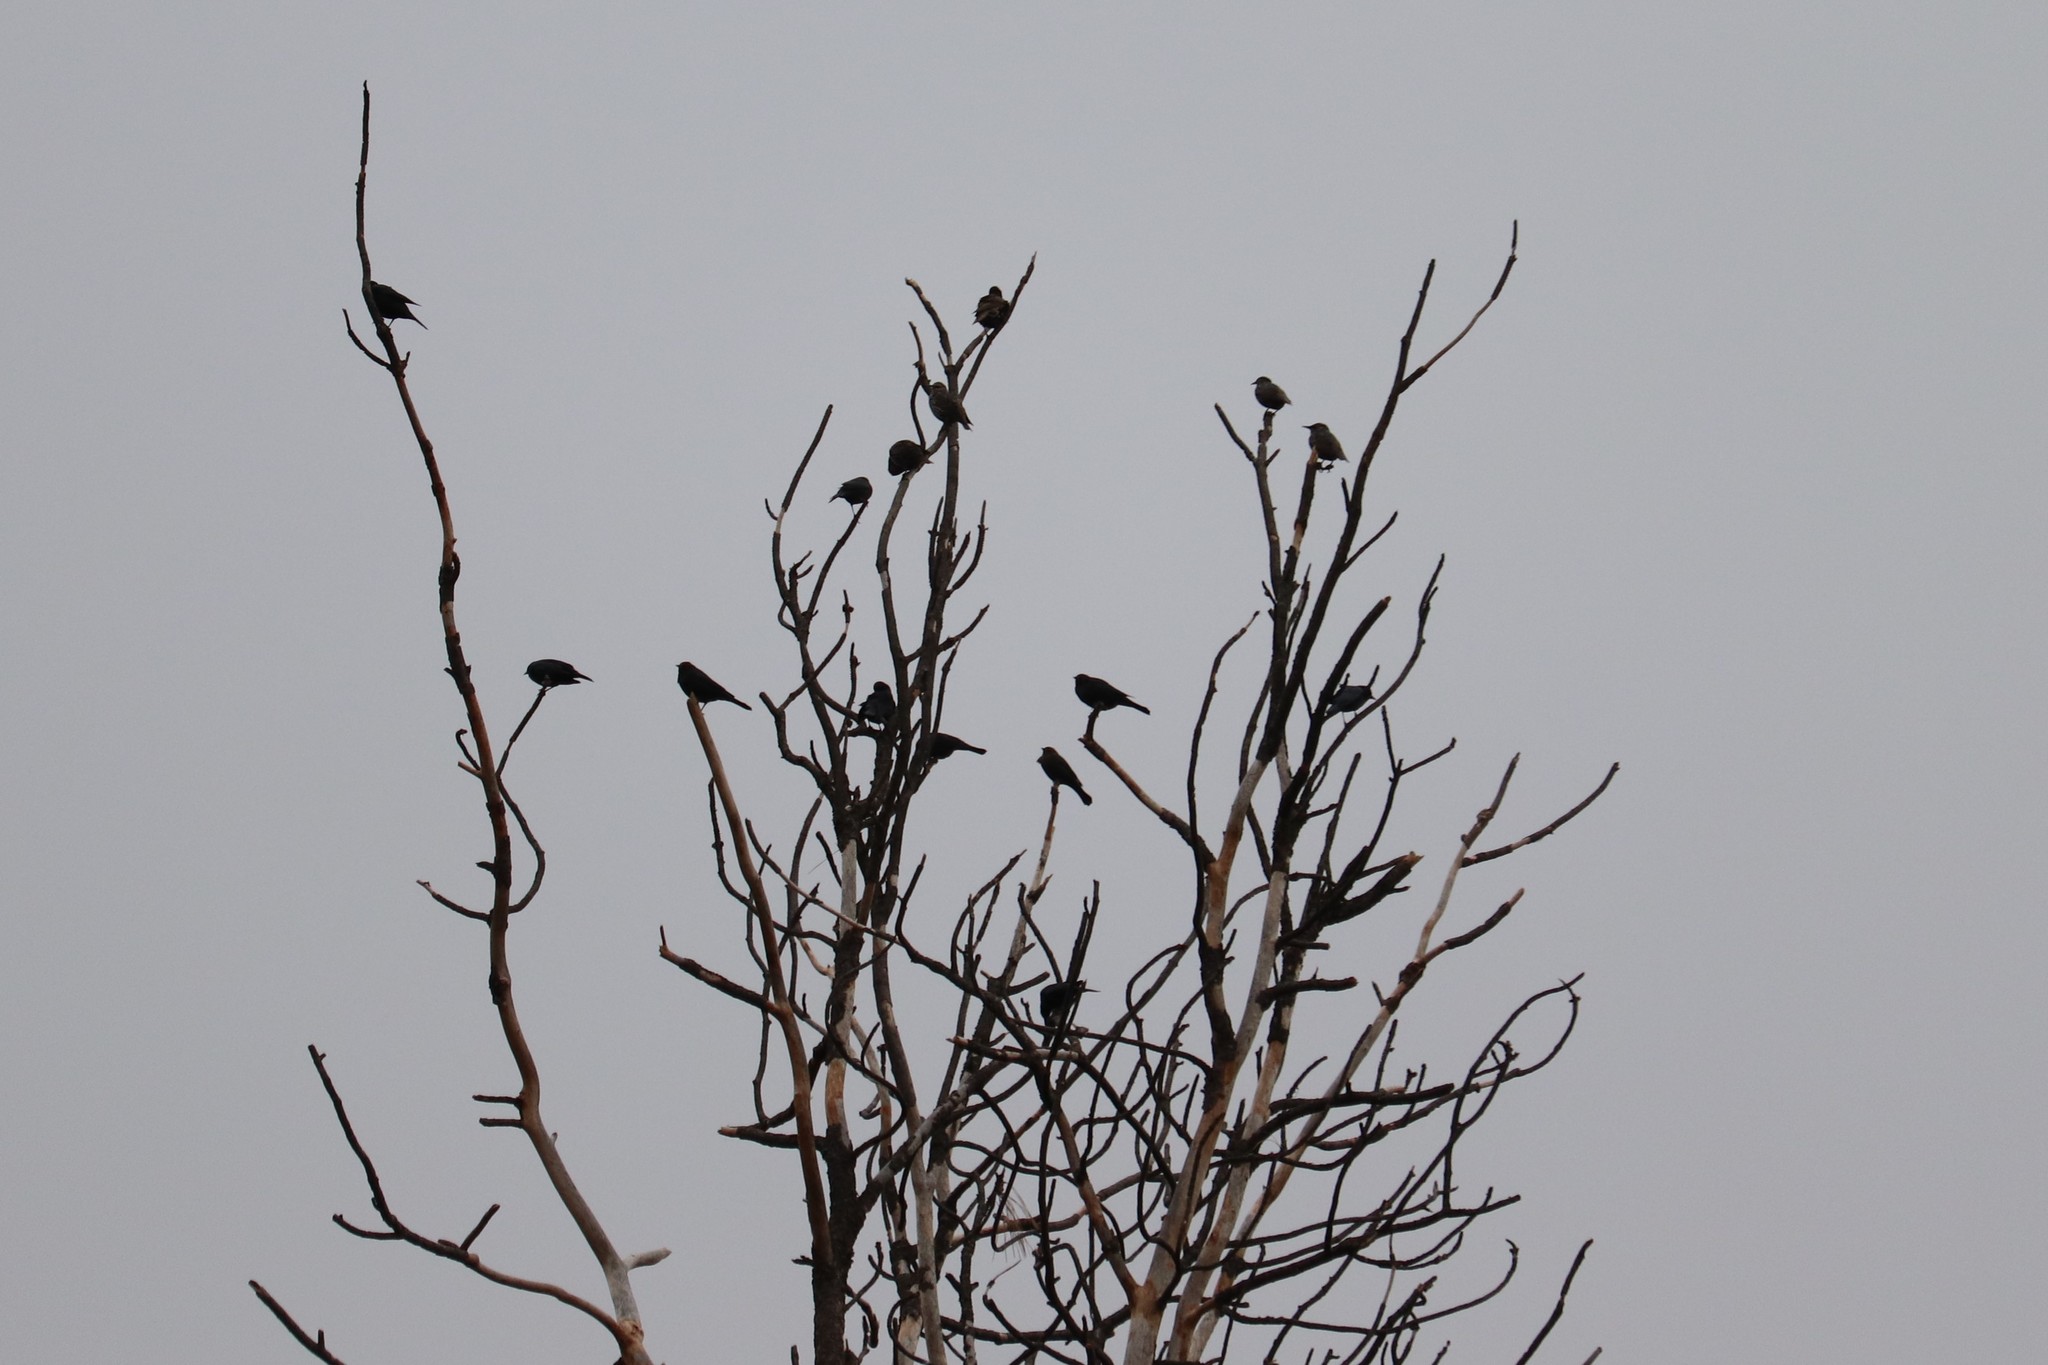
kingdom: Animalia
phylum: Chordata
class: Aves
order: Passeriformes
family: Sturnidae
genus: Sturnus
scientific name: Sturnus vulgaris
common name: Common starling
